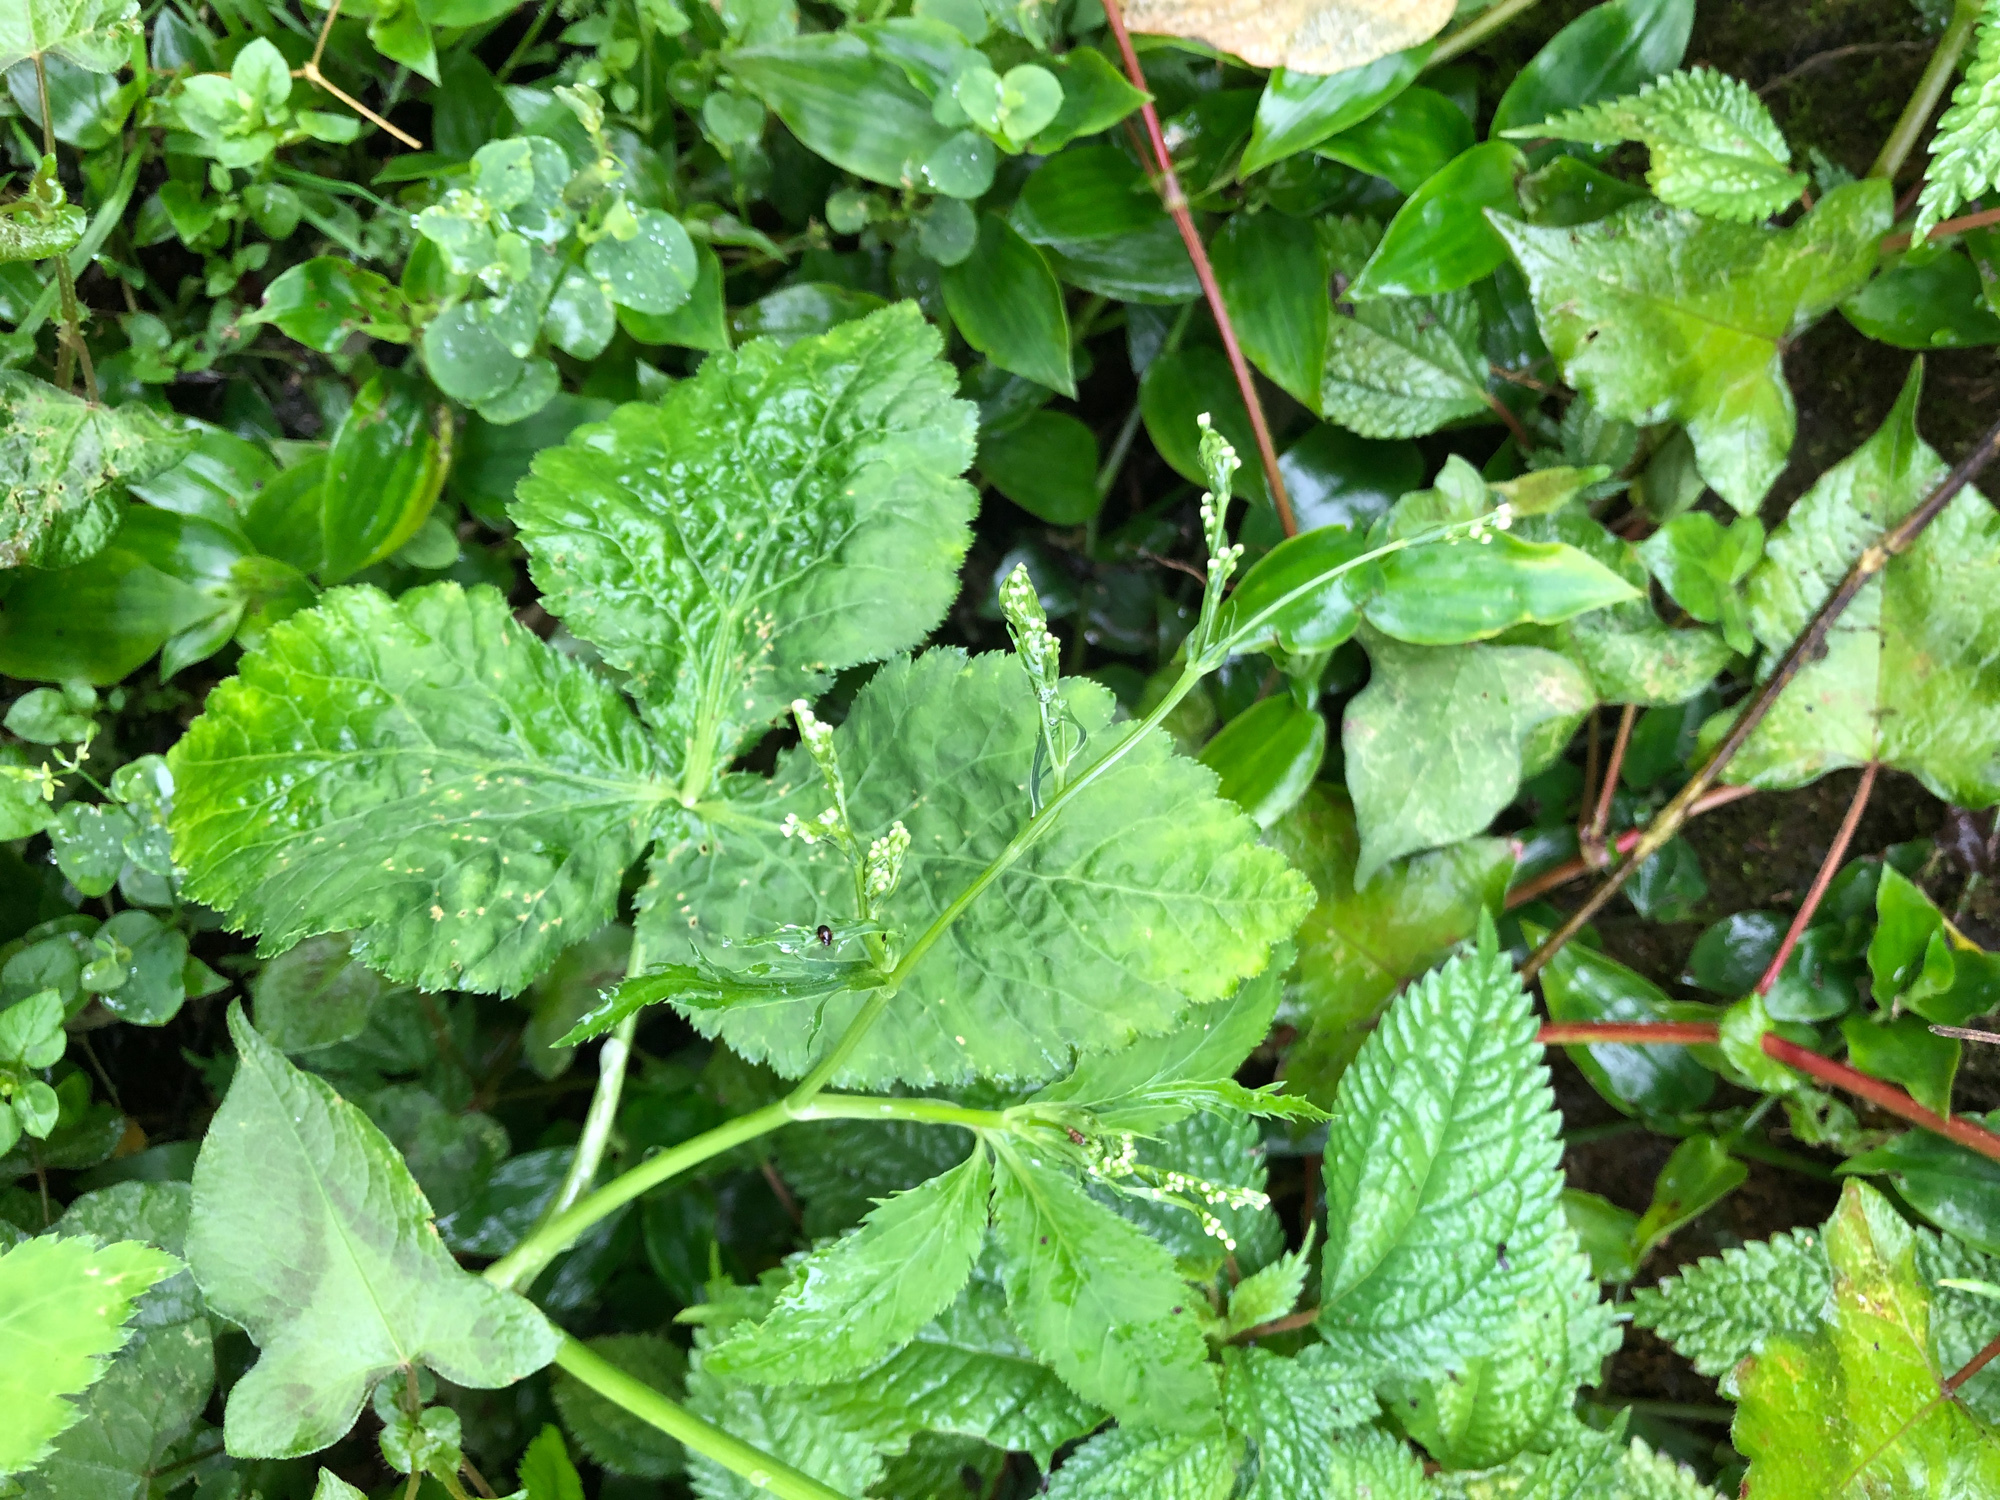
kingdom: Plantae
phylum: Tracheophyta
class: Magnoliopsida
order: Apiales
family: Apiaceae
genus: Cryptotaenia
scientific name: Cryptotaenia japonica
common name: Japanese cryptotaenia
